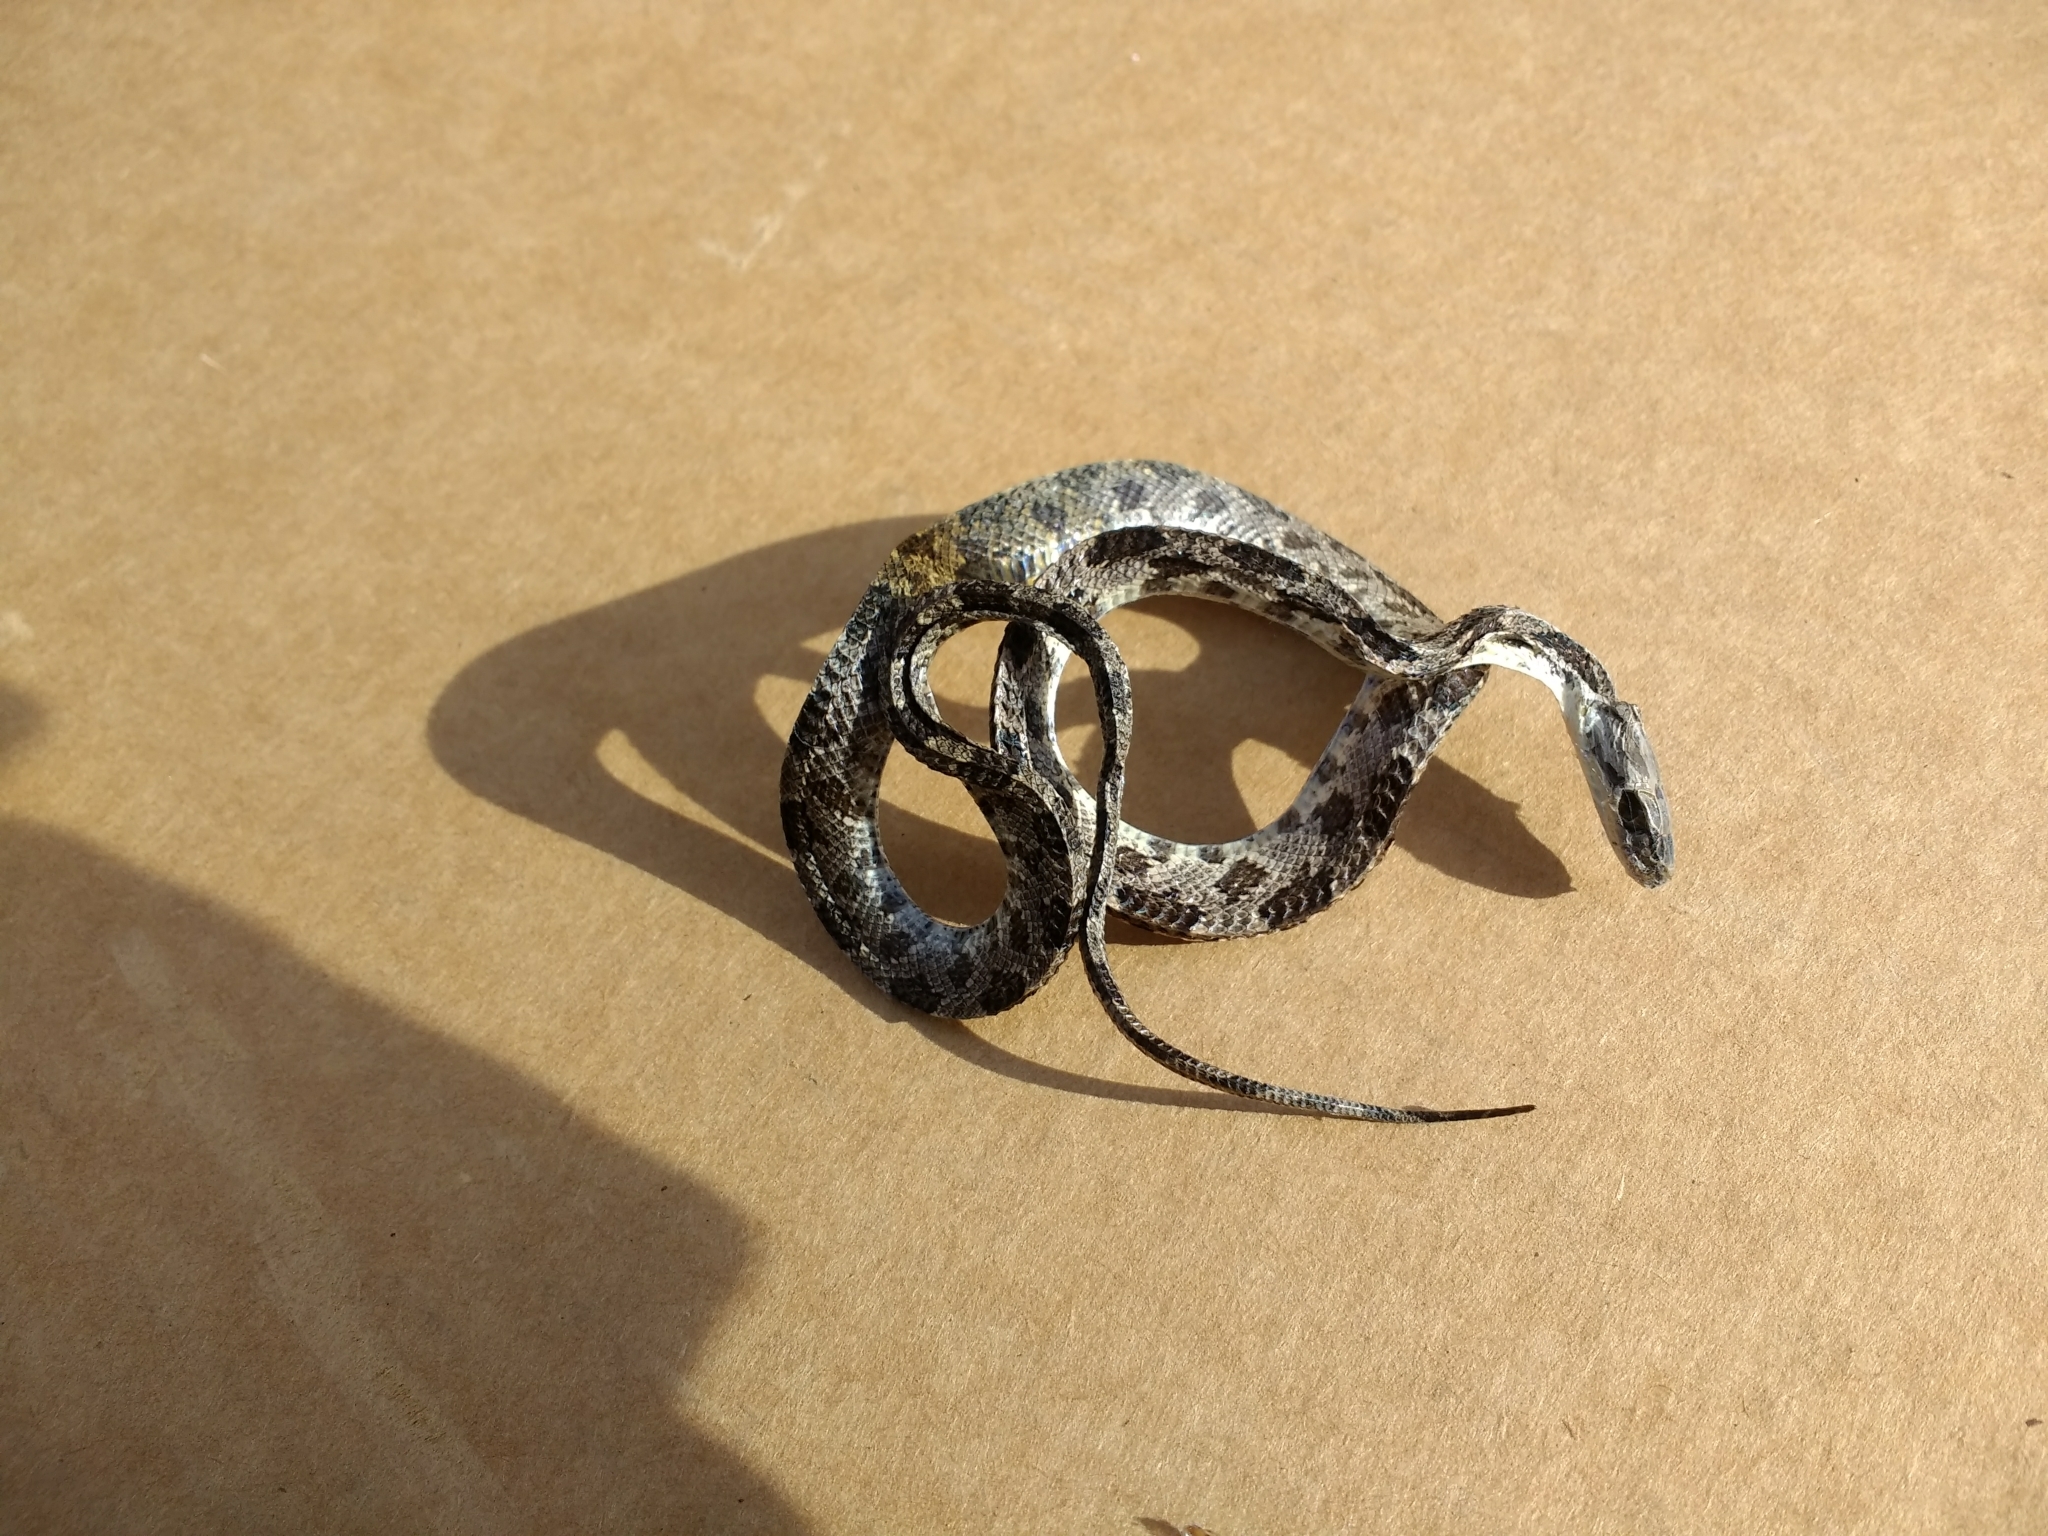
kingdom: Animalia
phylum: Chordata
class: Squamata
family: Colubridae
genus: Pantherophis
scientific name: Pantherophis obsoletus
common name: Black rat snake
